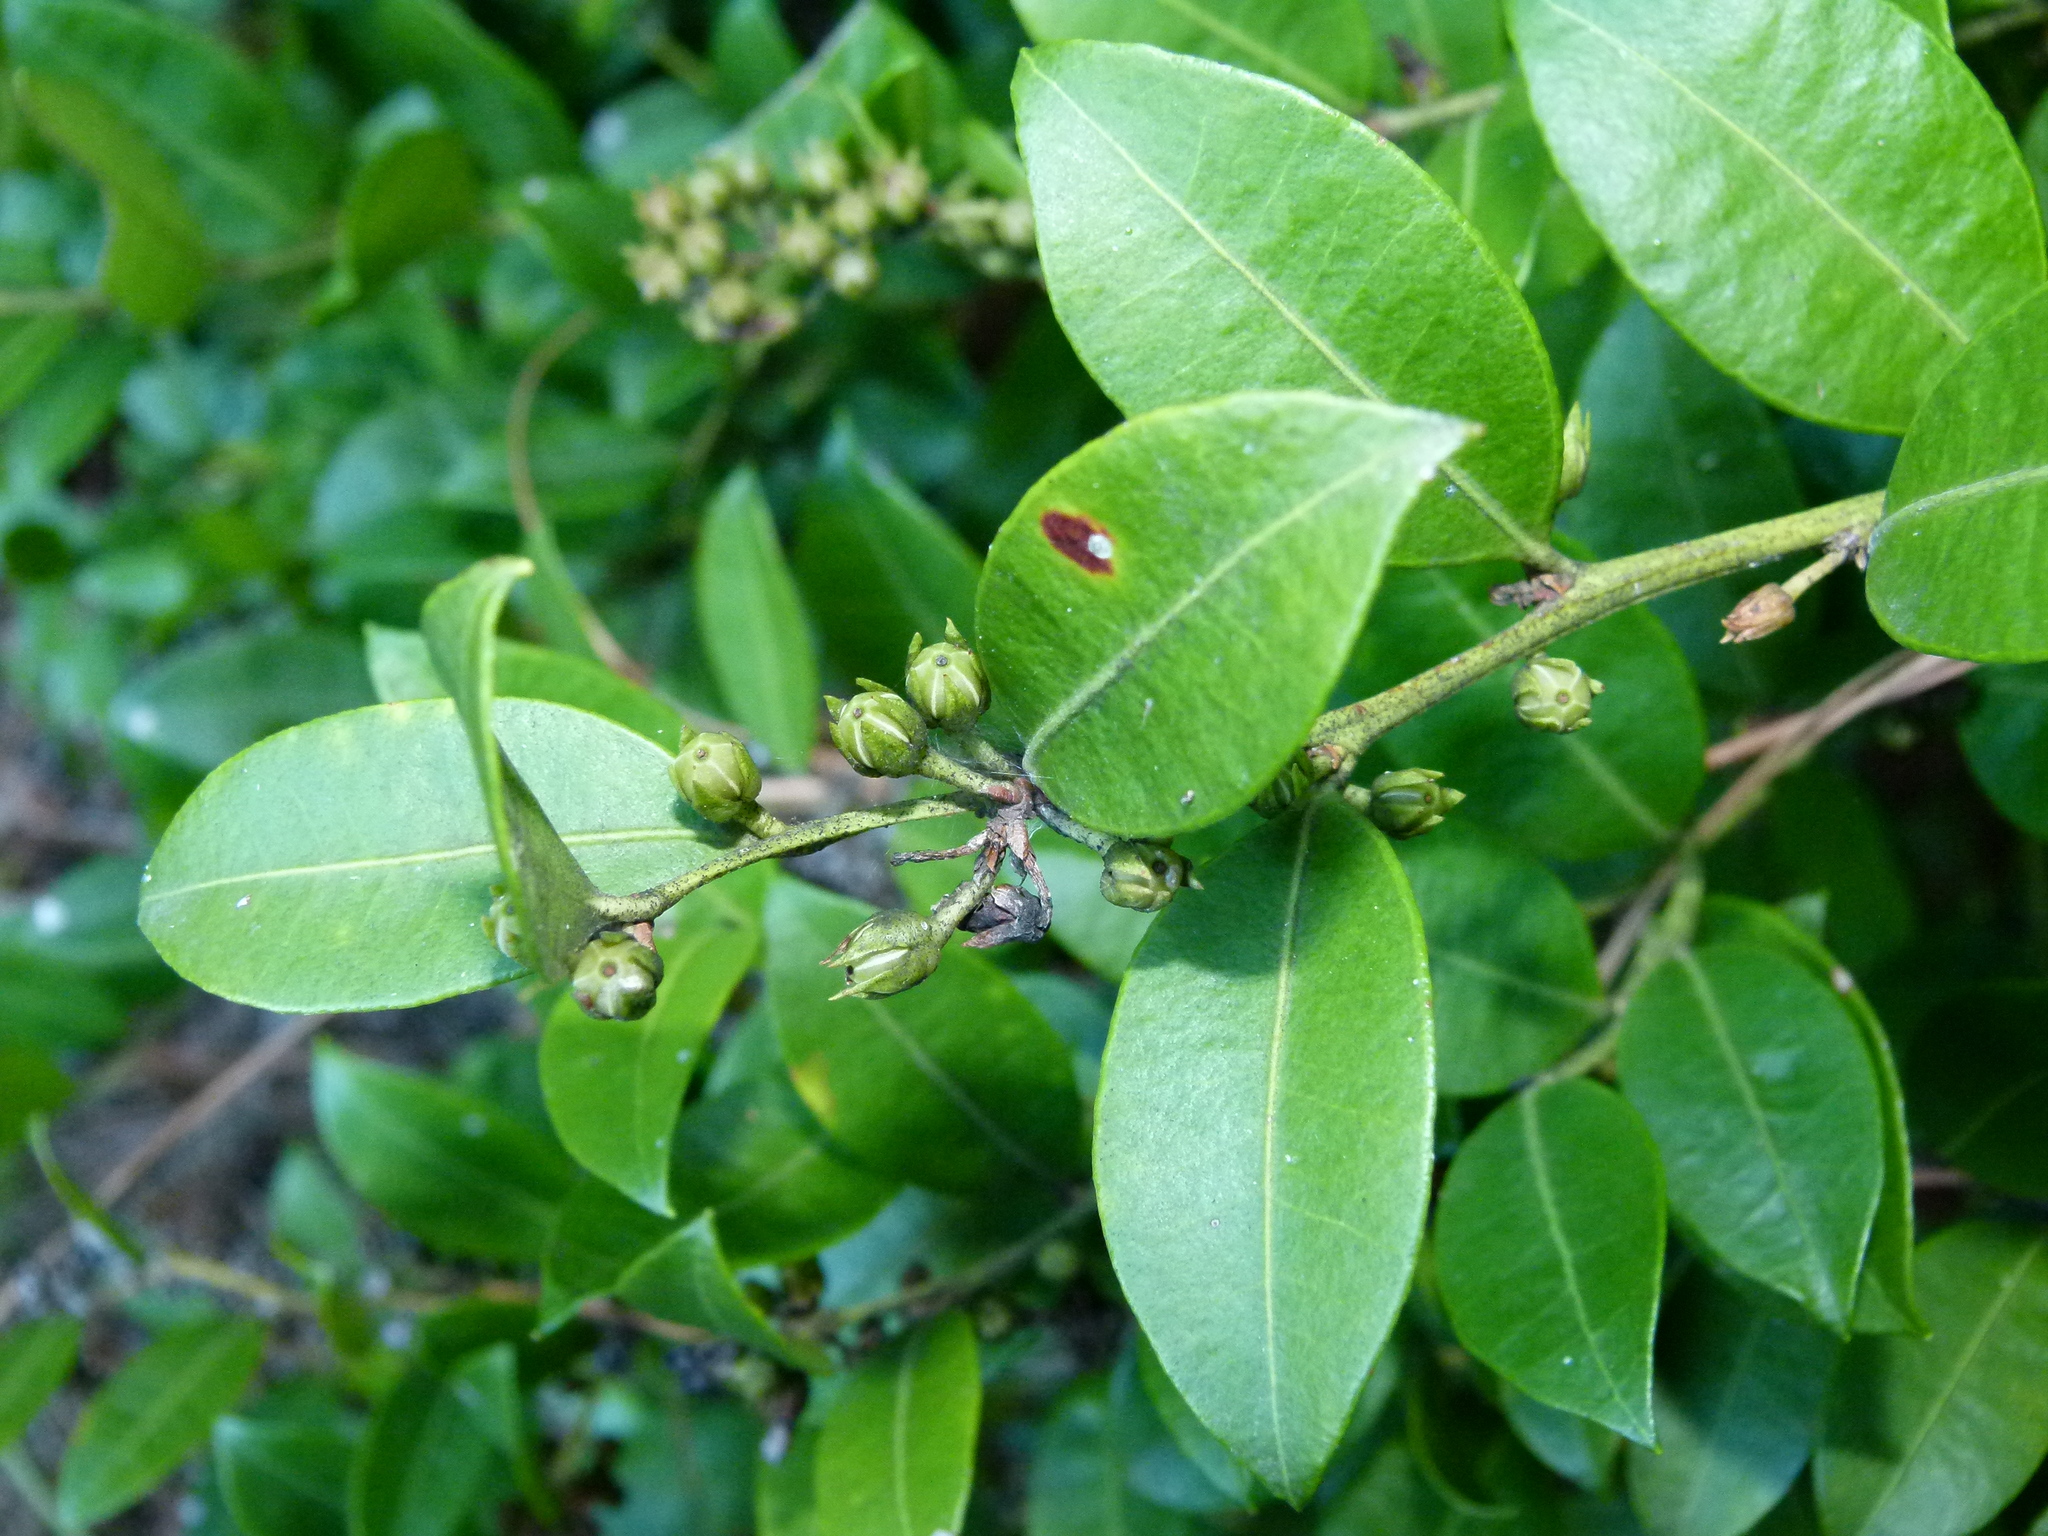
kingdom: Plantae
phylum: Tracheophyta
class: Magnoliopsida
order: Ericales
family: Ericaceae
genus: Lyonia
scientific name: Lyonia lucida
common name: Fetterbush
